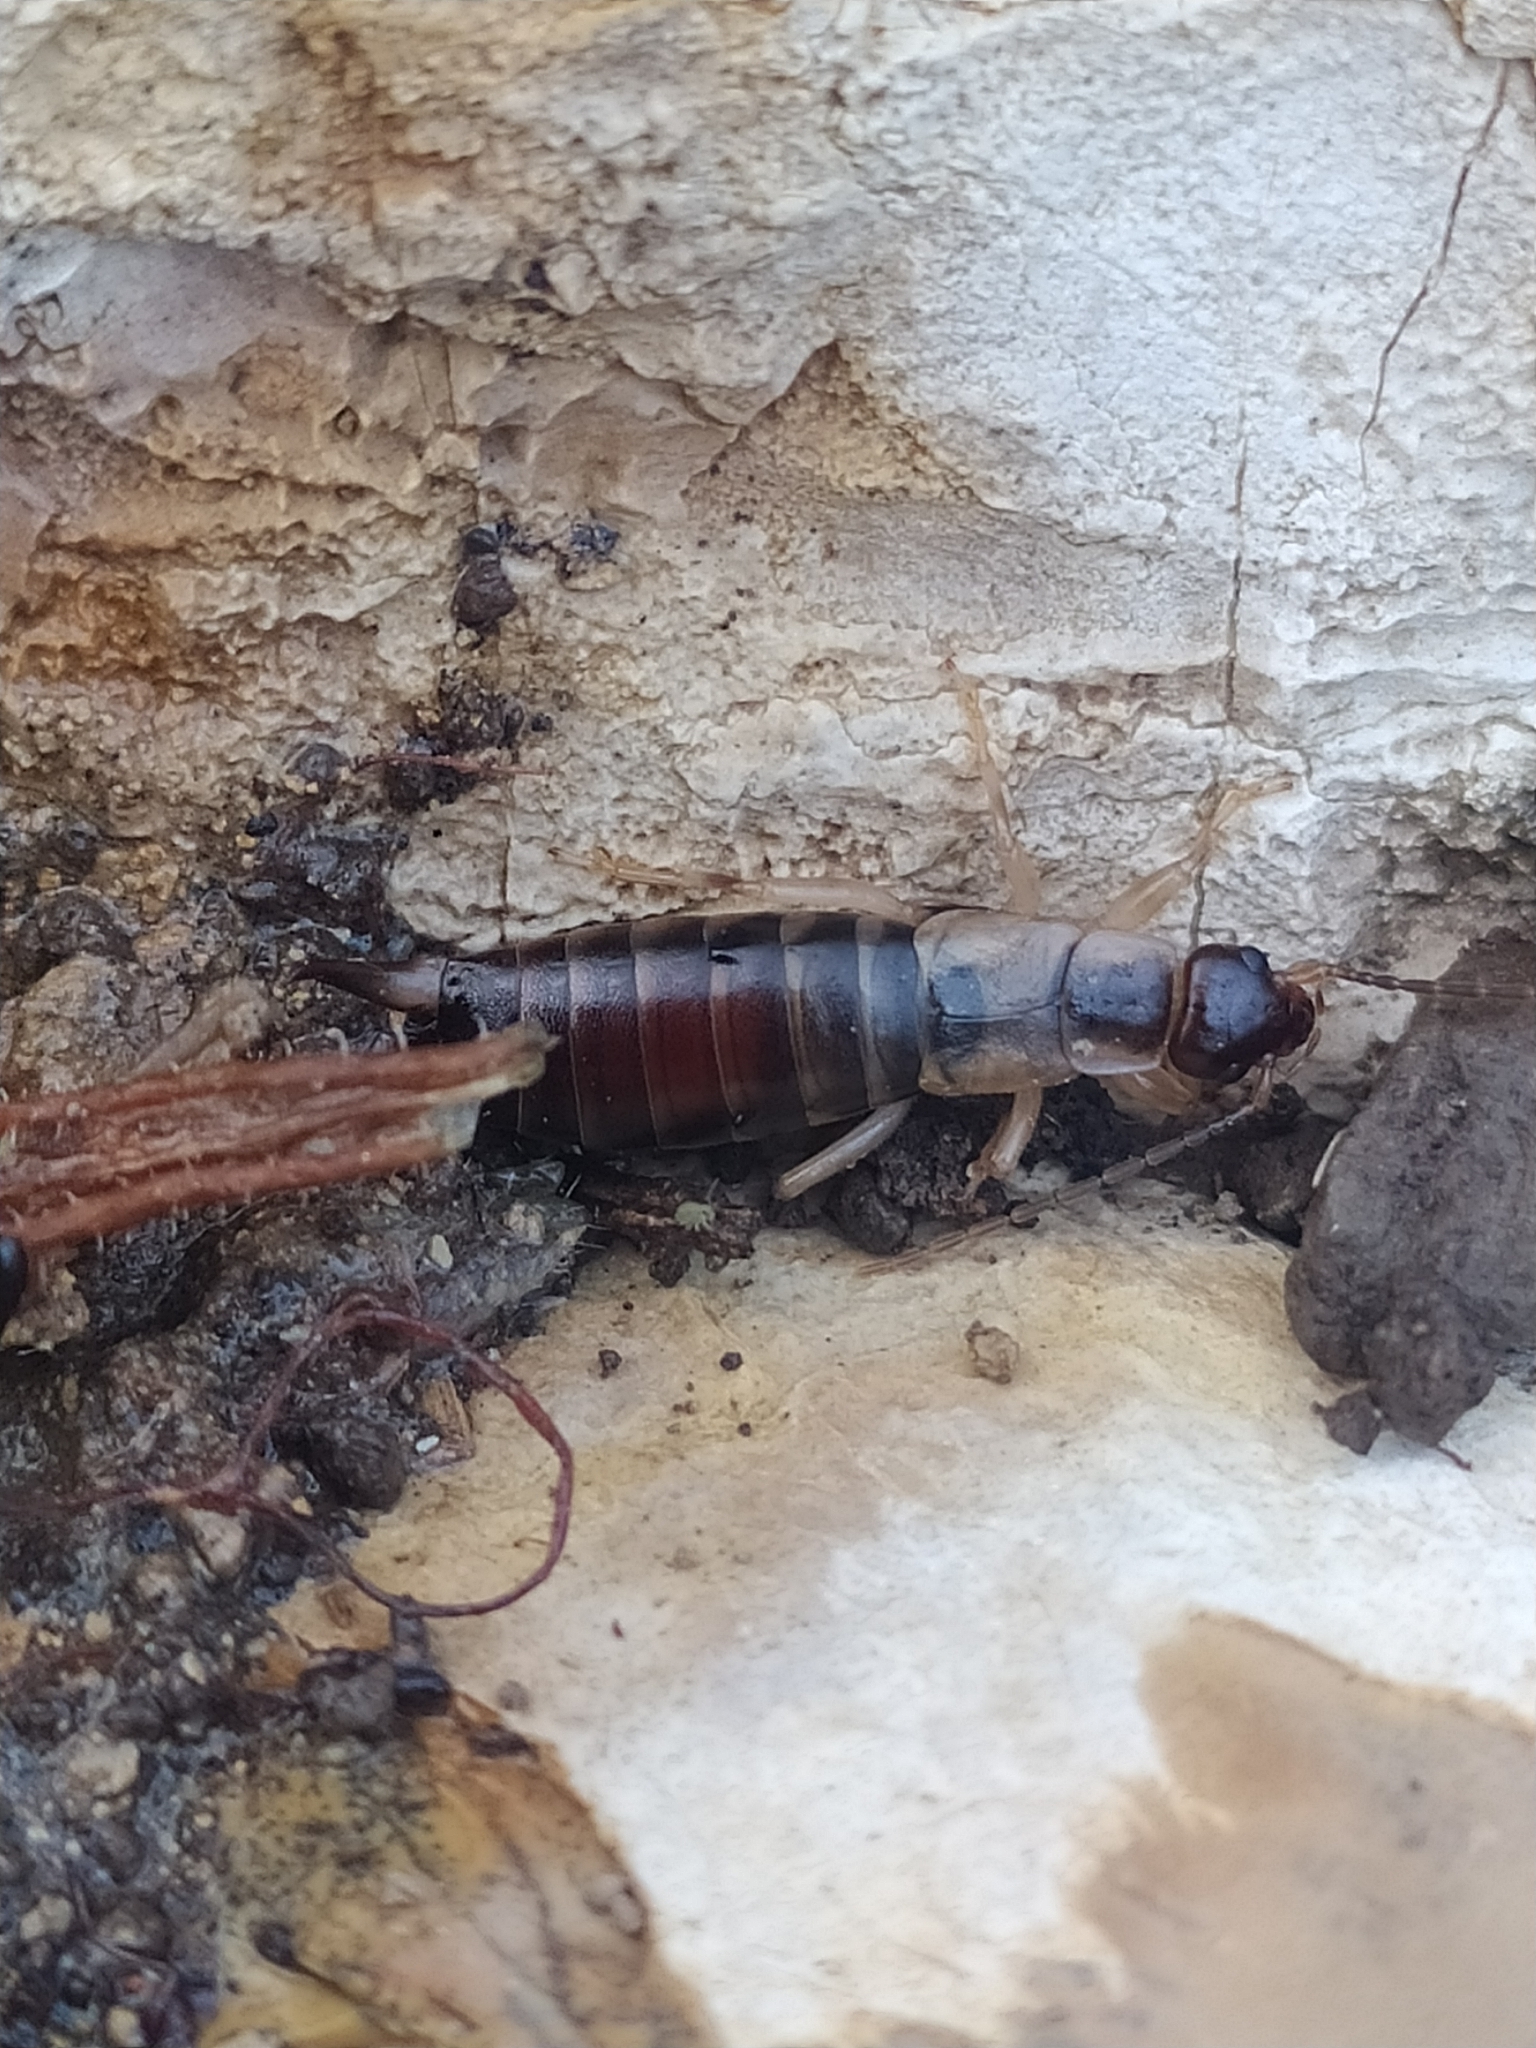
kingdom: Animalia
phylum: Arthropoda
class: Insecta
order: Dermaptera
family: Forficulidae
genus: Forficula
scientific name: Forficula decipiens
